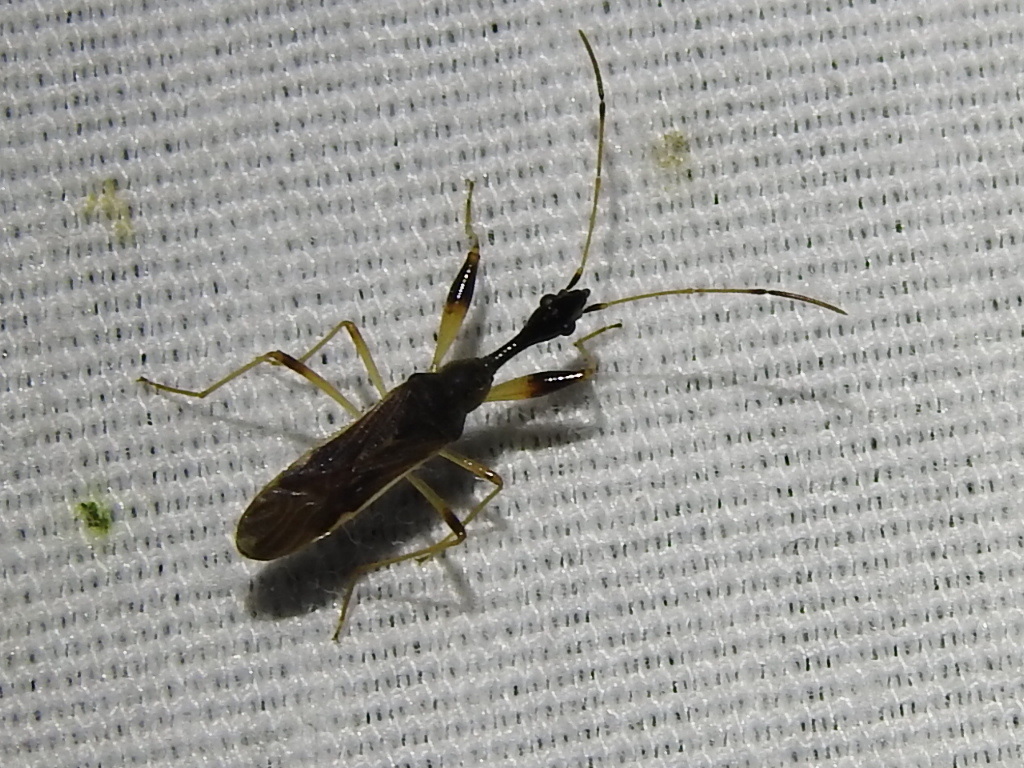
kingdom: Animalia
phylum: Arthropoda
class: Insecta
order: Hemiptera
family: Rhyparochromidae
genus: Myodocha
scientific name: Myodocha serripes
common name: Long-necked seed bug
